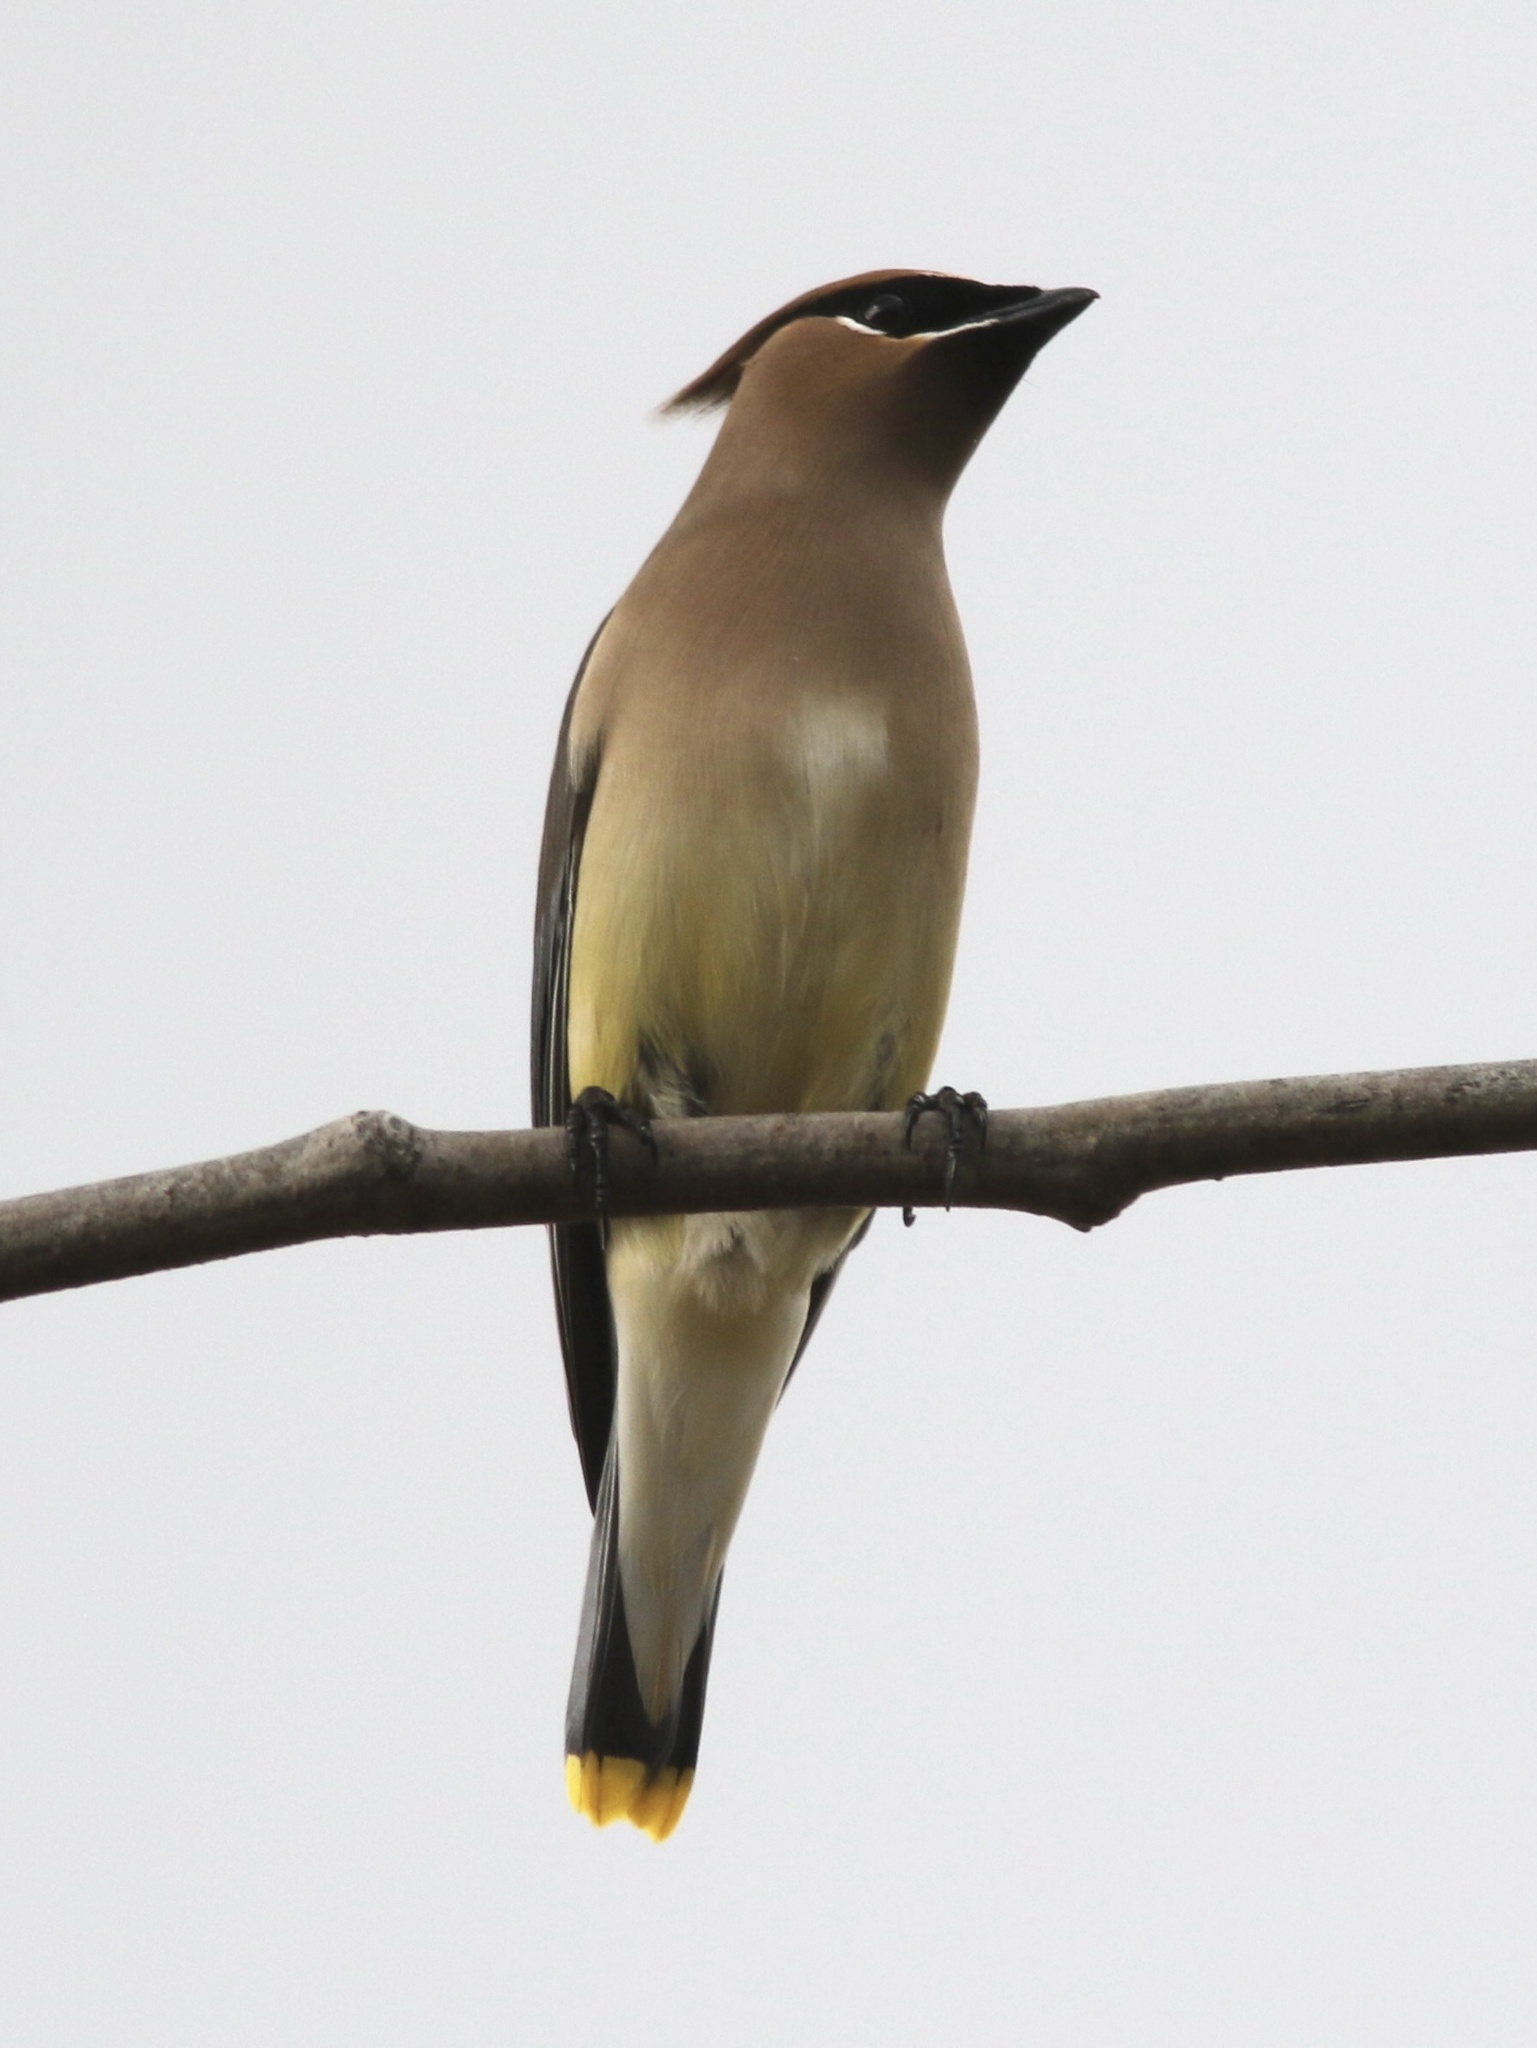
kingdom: Animalia
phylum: Chordata
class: Aves
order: Passeriformes
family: Bombycillidae
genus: Bombycilla
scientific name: Bombycilla cedrorum
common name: Cedar waxwing
